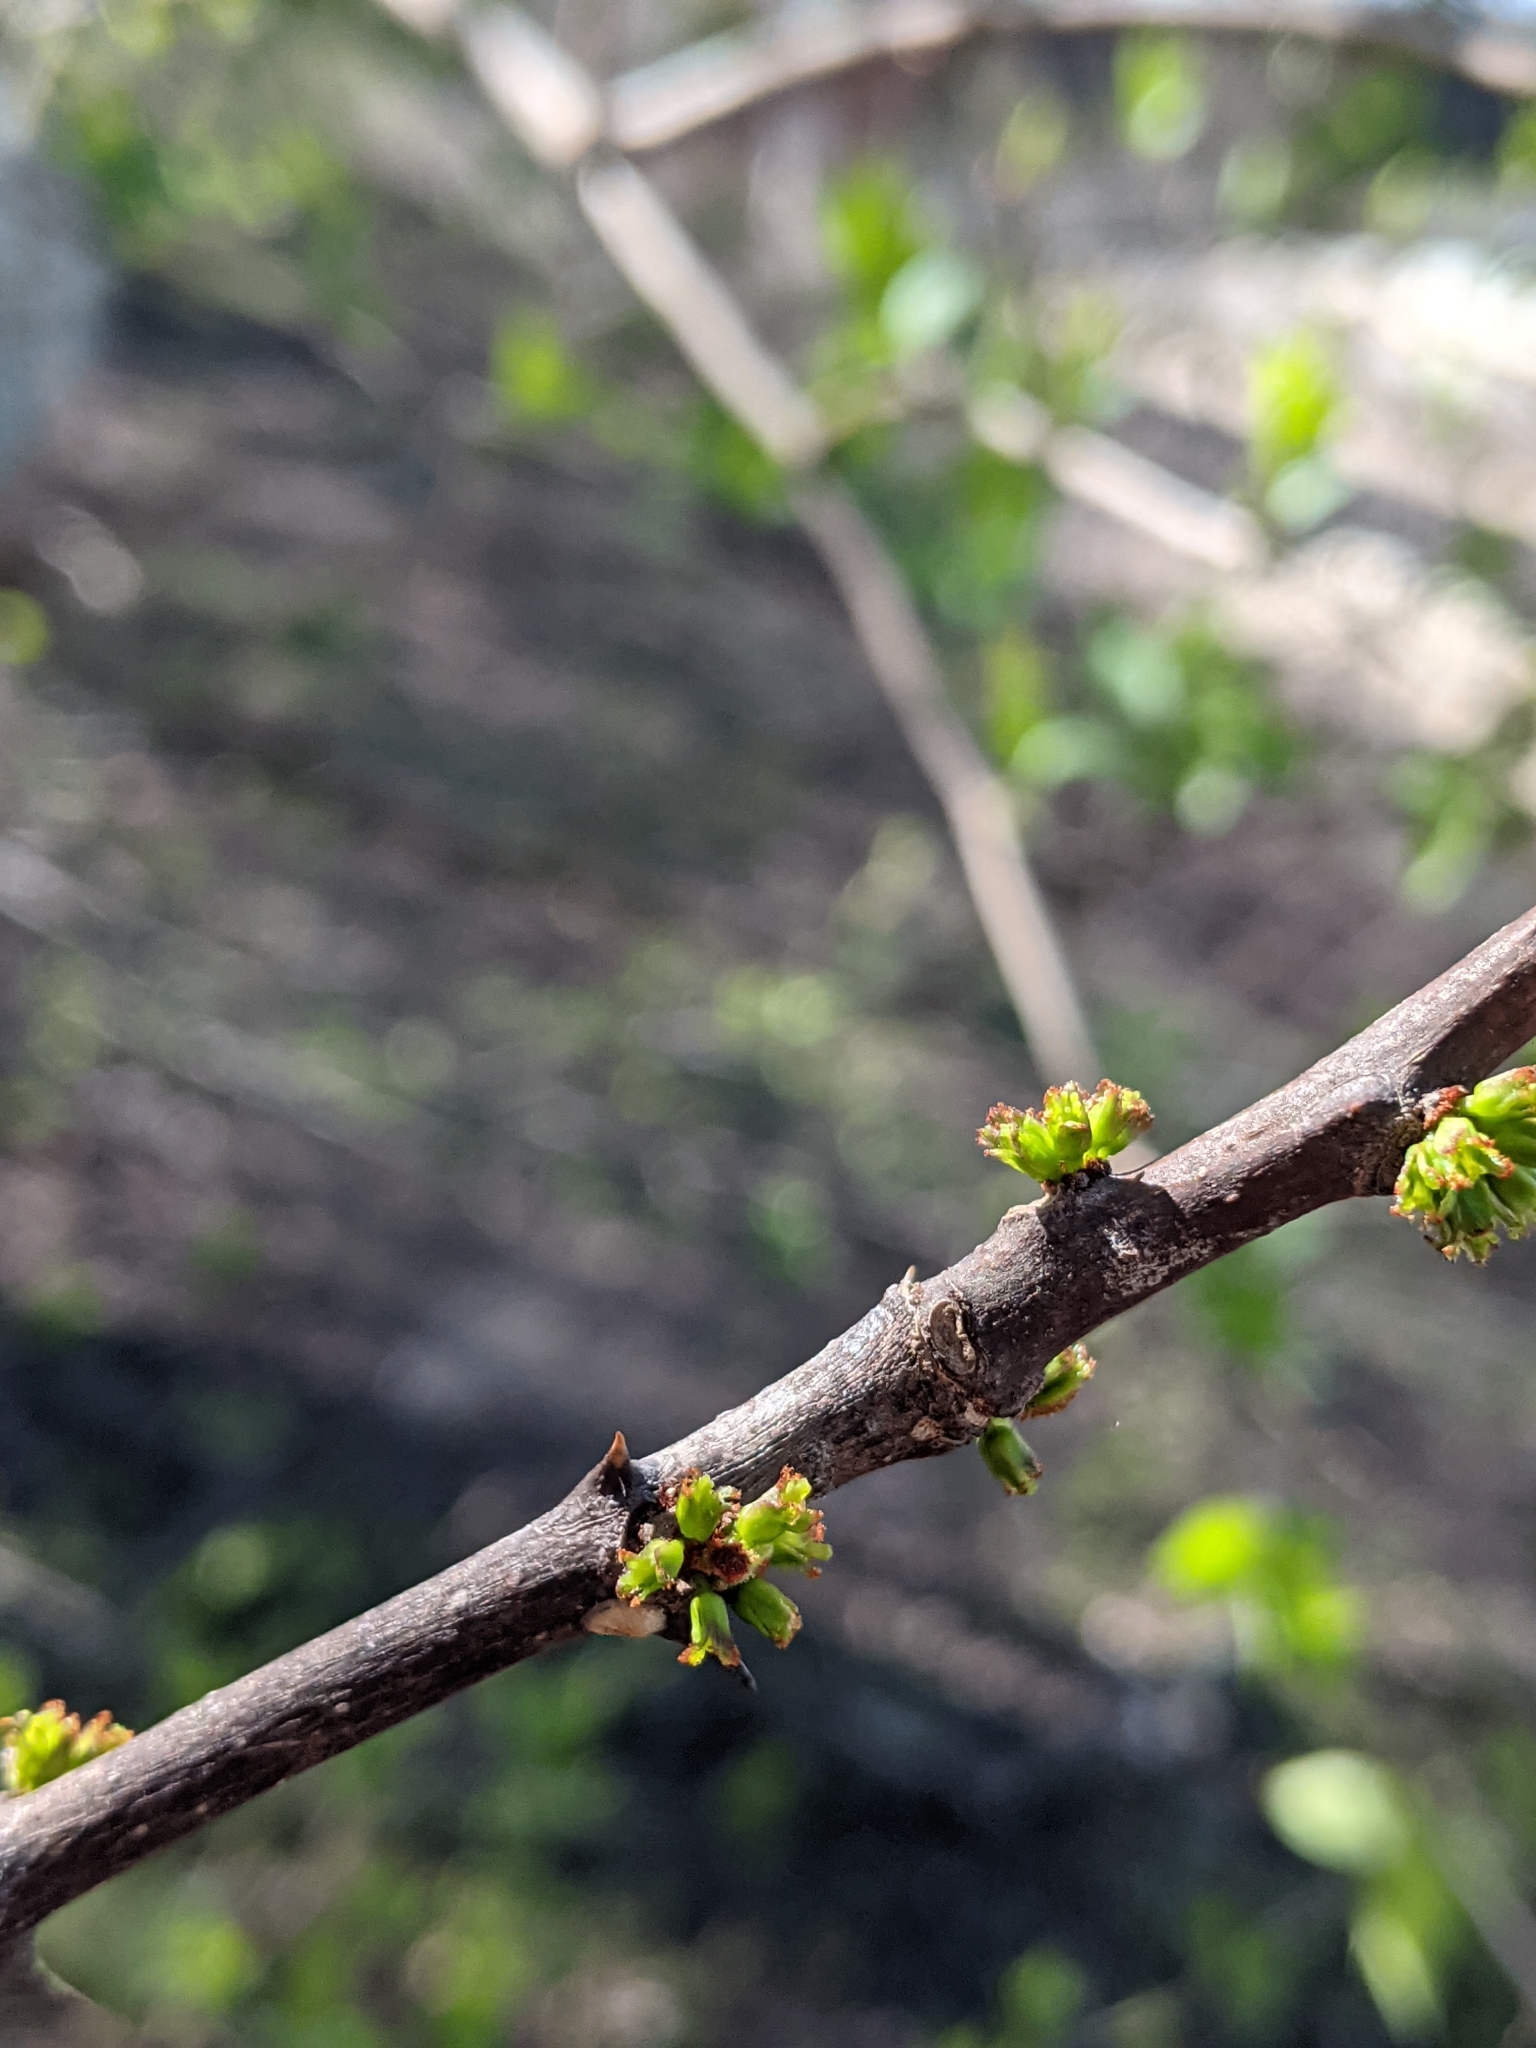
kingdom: Plantae
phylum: Tracheophyta
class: Magnoliopsida
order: Sapindales
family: Rutaceae
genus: Zanthoxylum
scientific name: Zanthoxylum americanum
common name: Northern prickly-ash
